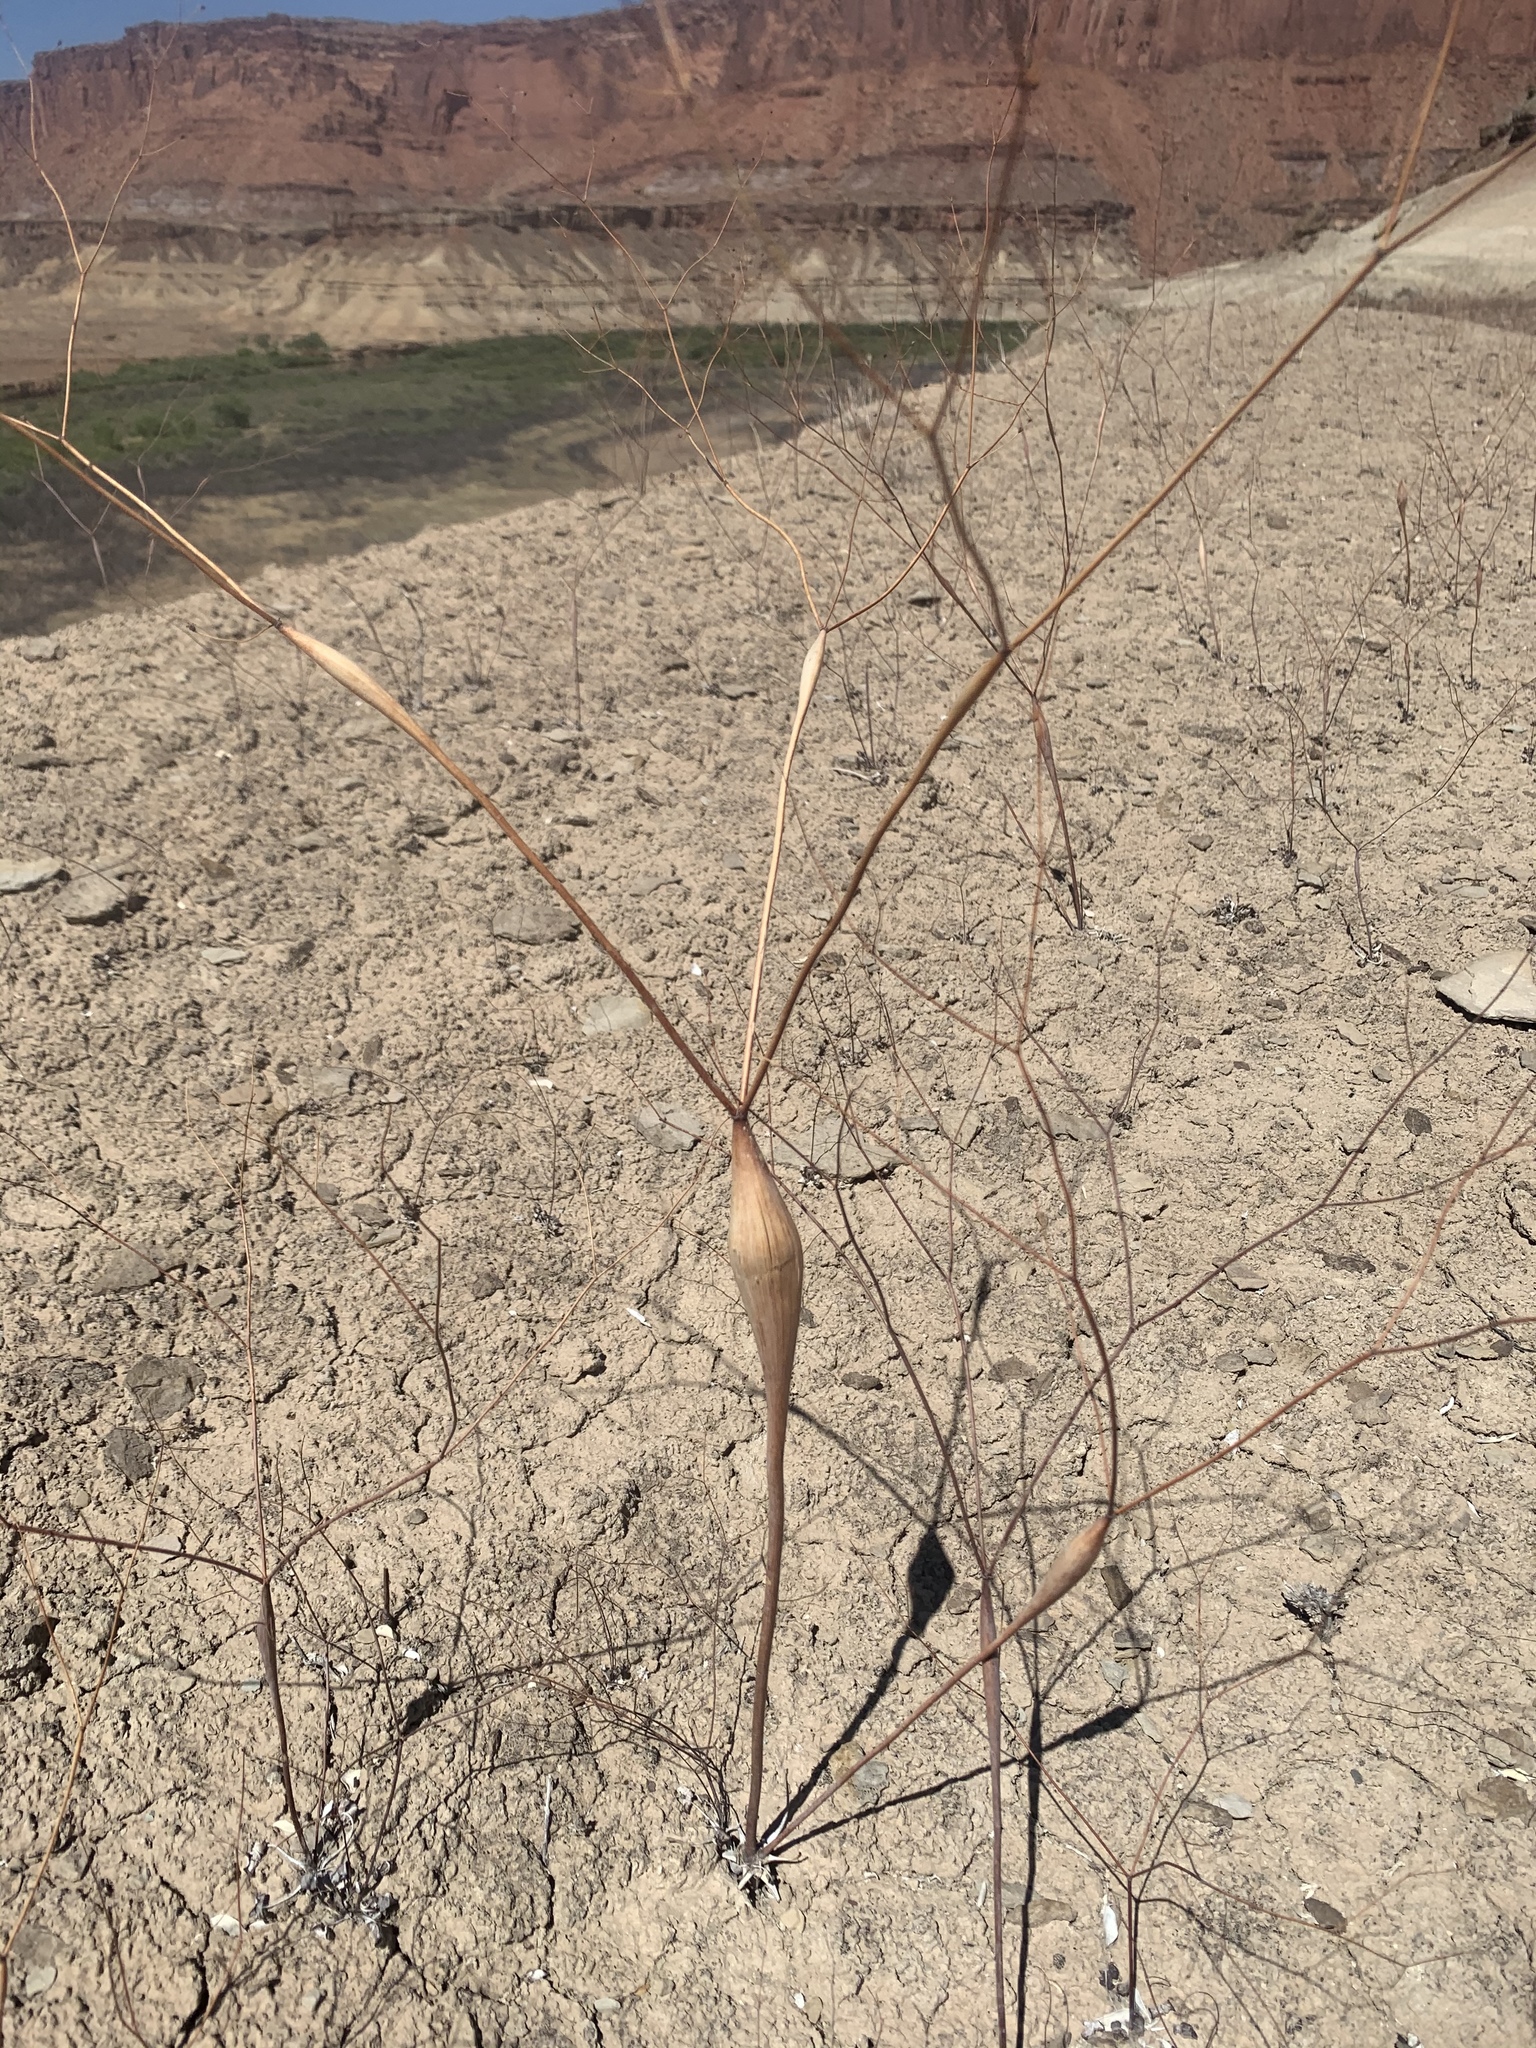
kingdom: Plantae
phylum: Tracheophyta
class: Magnoliopsida
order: Caryophyllales
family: Polygonaceae
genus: Eriogonum
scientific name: Eriogonum inflatum
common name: Desert trumpet
